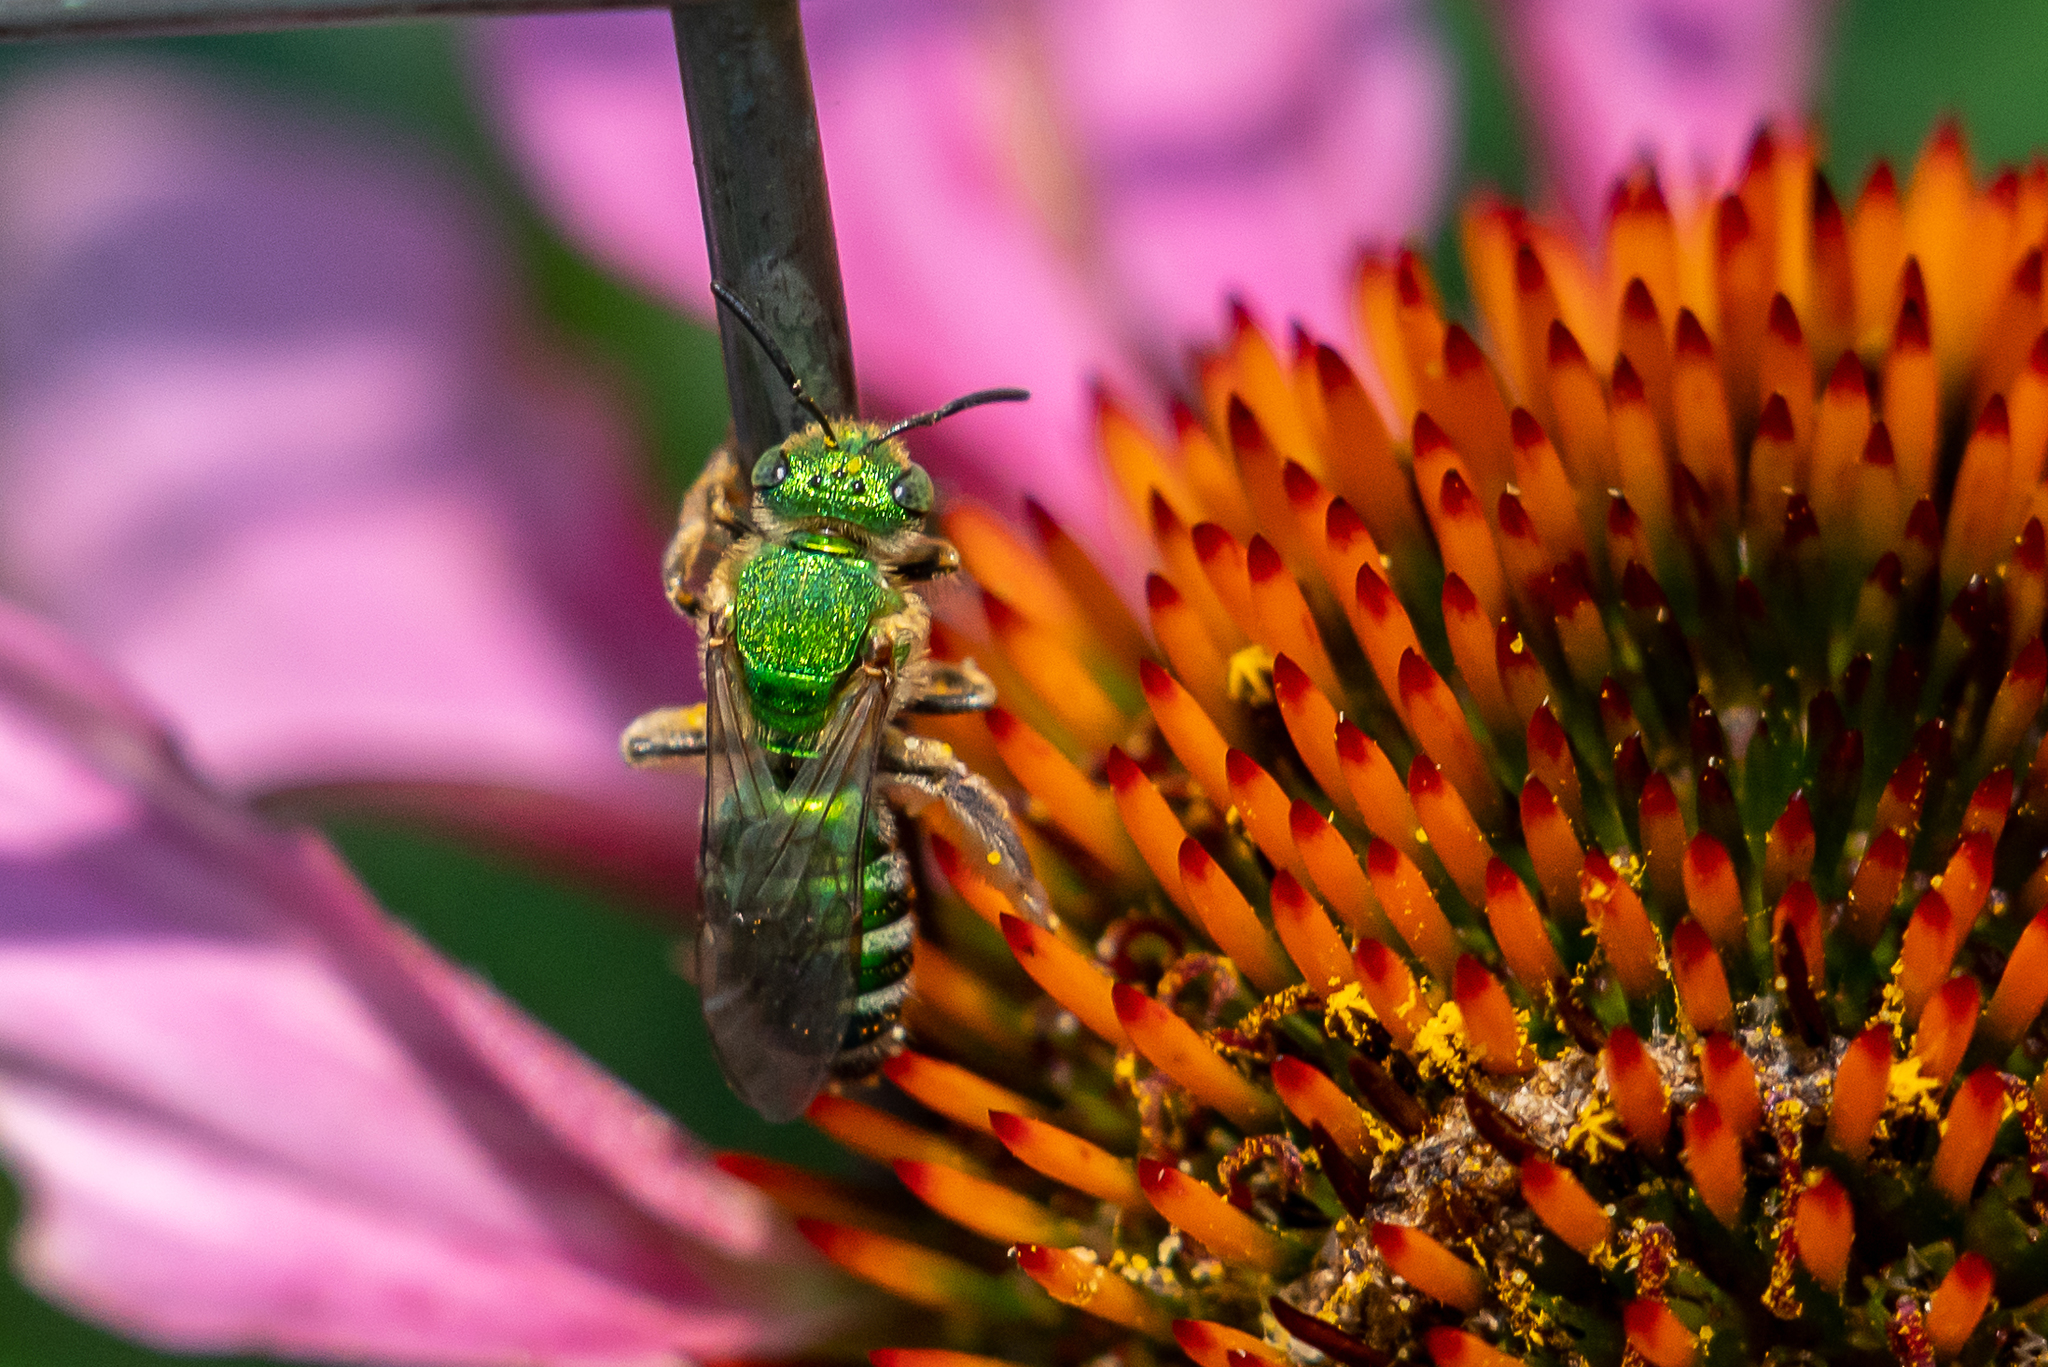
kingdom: Animalia
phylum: Arthropoda
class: Insecta
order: Hymenoptera
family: Halictidae
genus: Agapostemon
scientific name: Agapostemon sericeus
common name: Silky striped sweat bee
